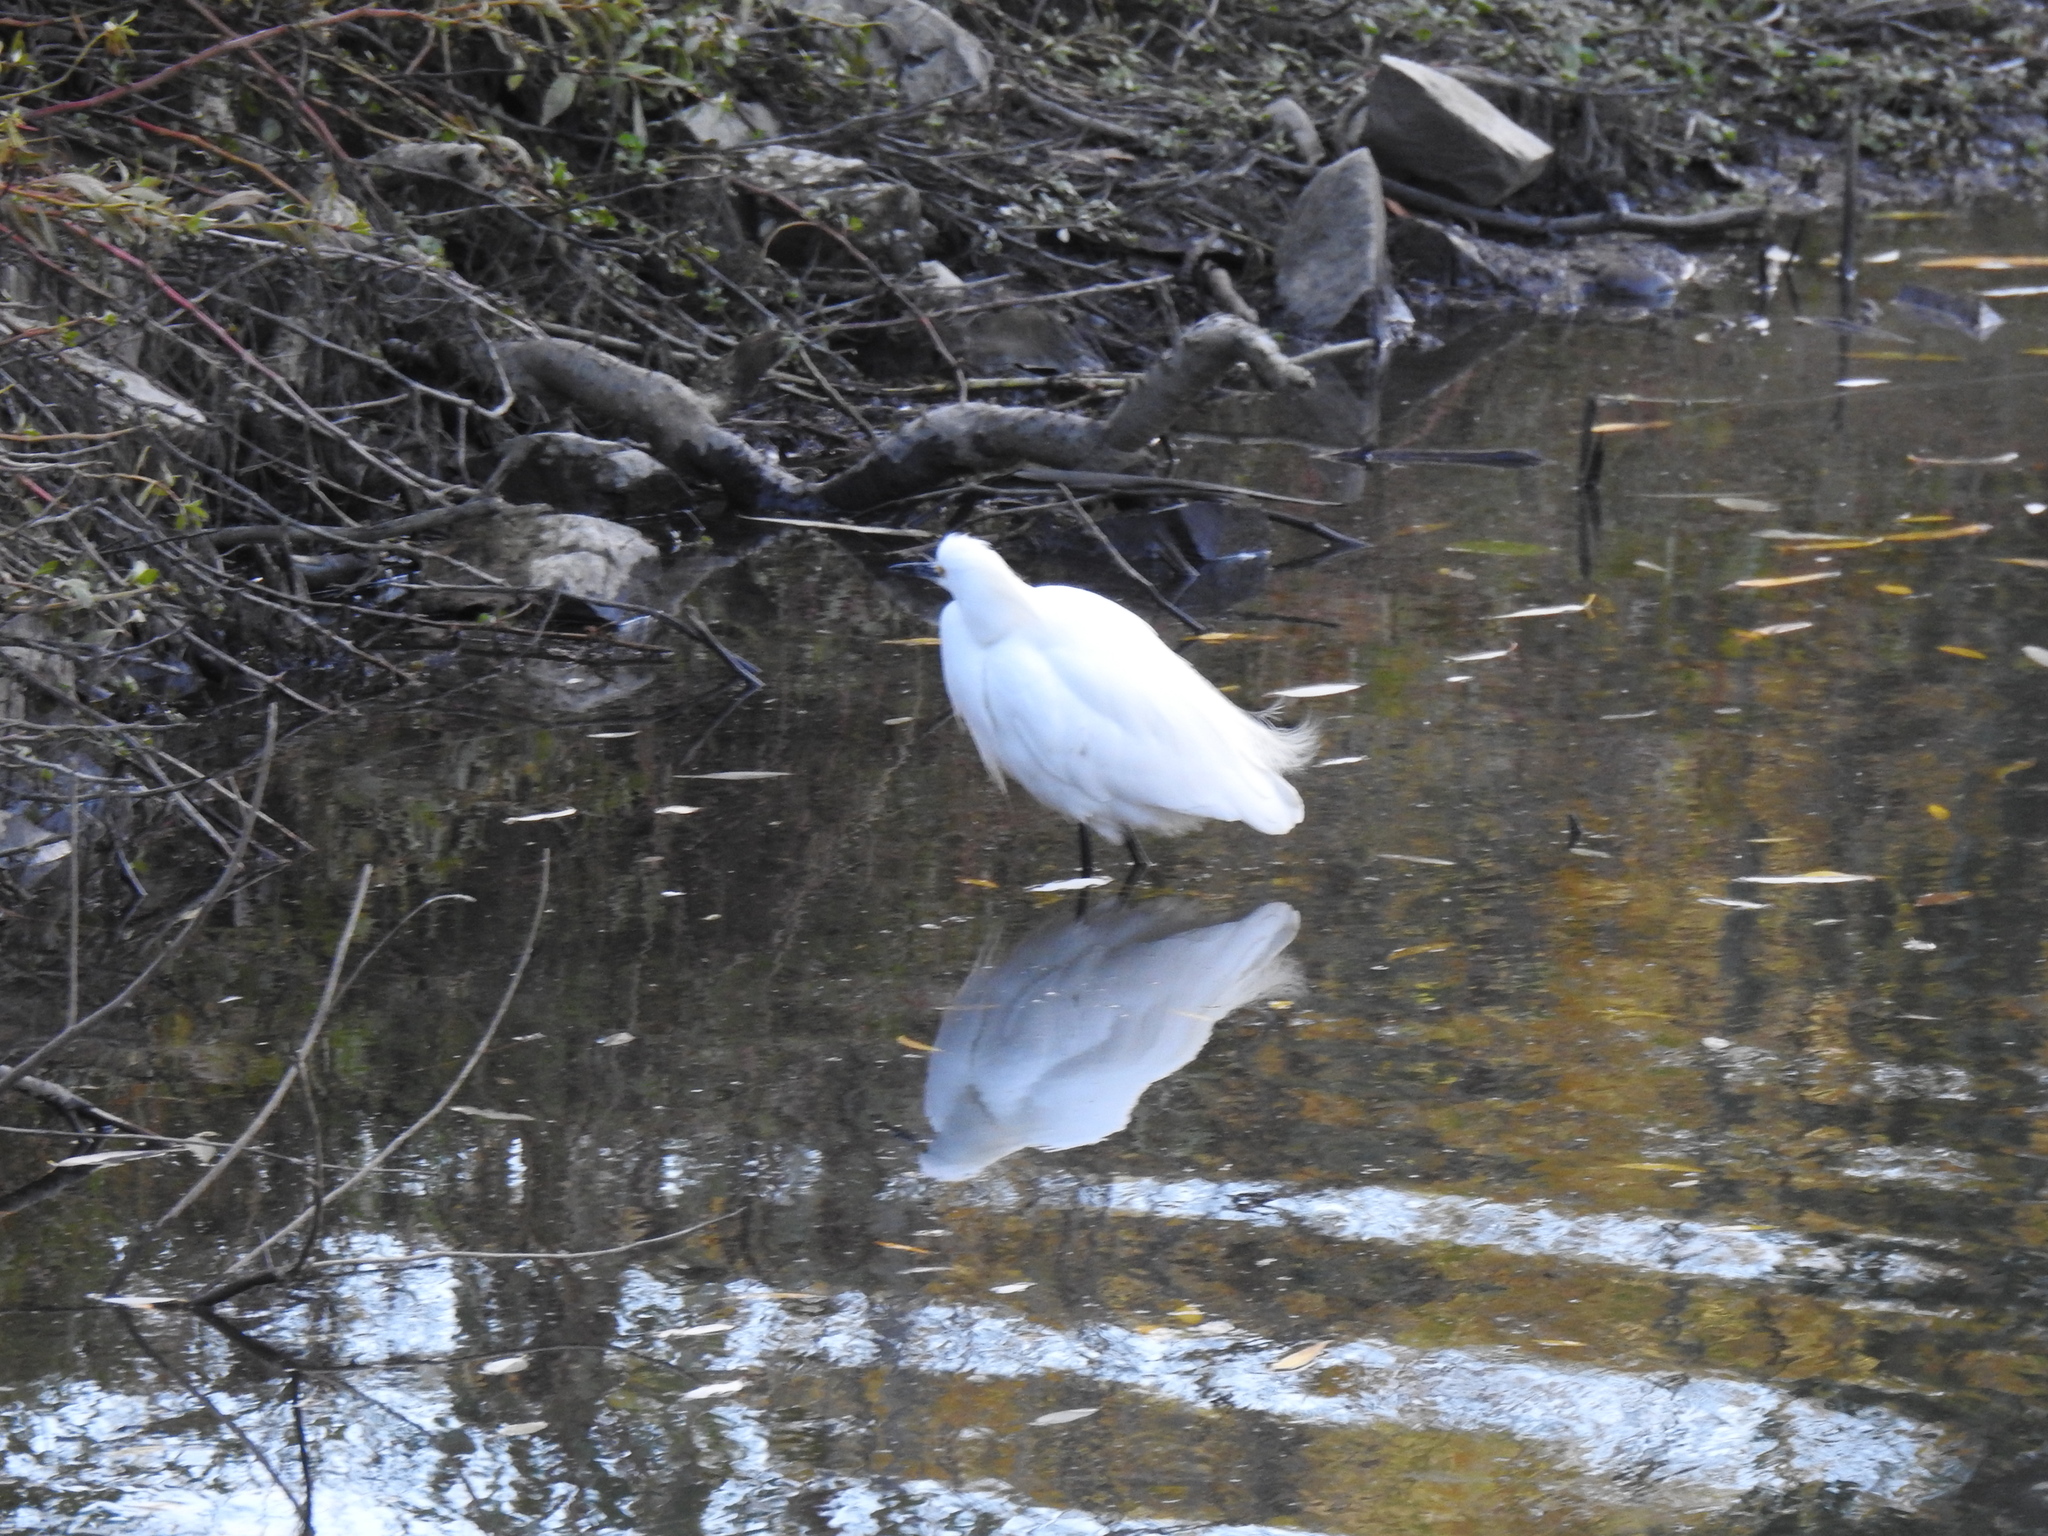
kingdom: Animalia
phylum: Chordata
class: Aves
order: Pelecaniformes
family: Ardeidae
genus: Egretta
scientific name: Egretta thula
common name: Snowy egret
